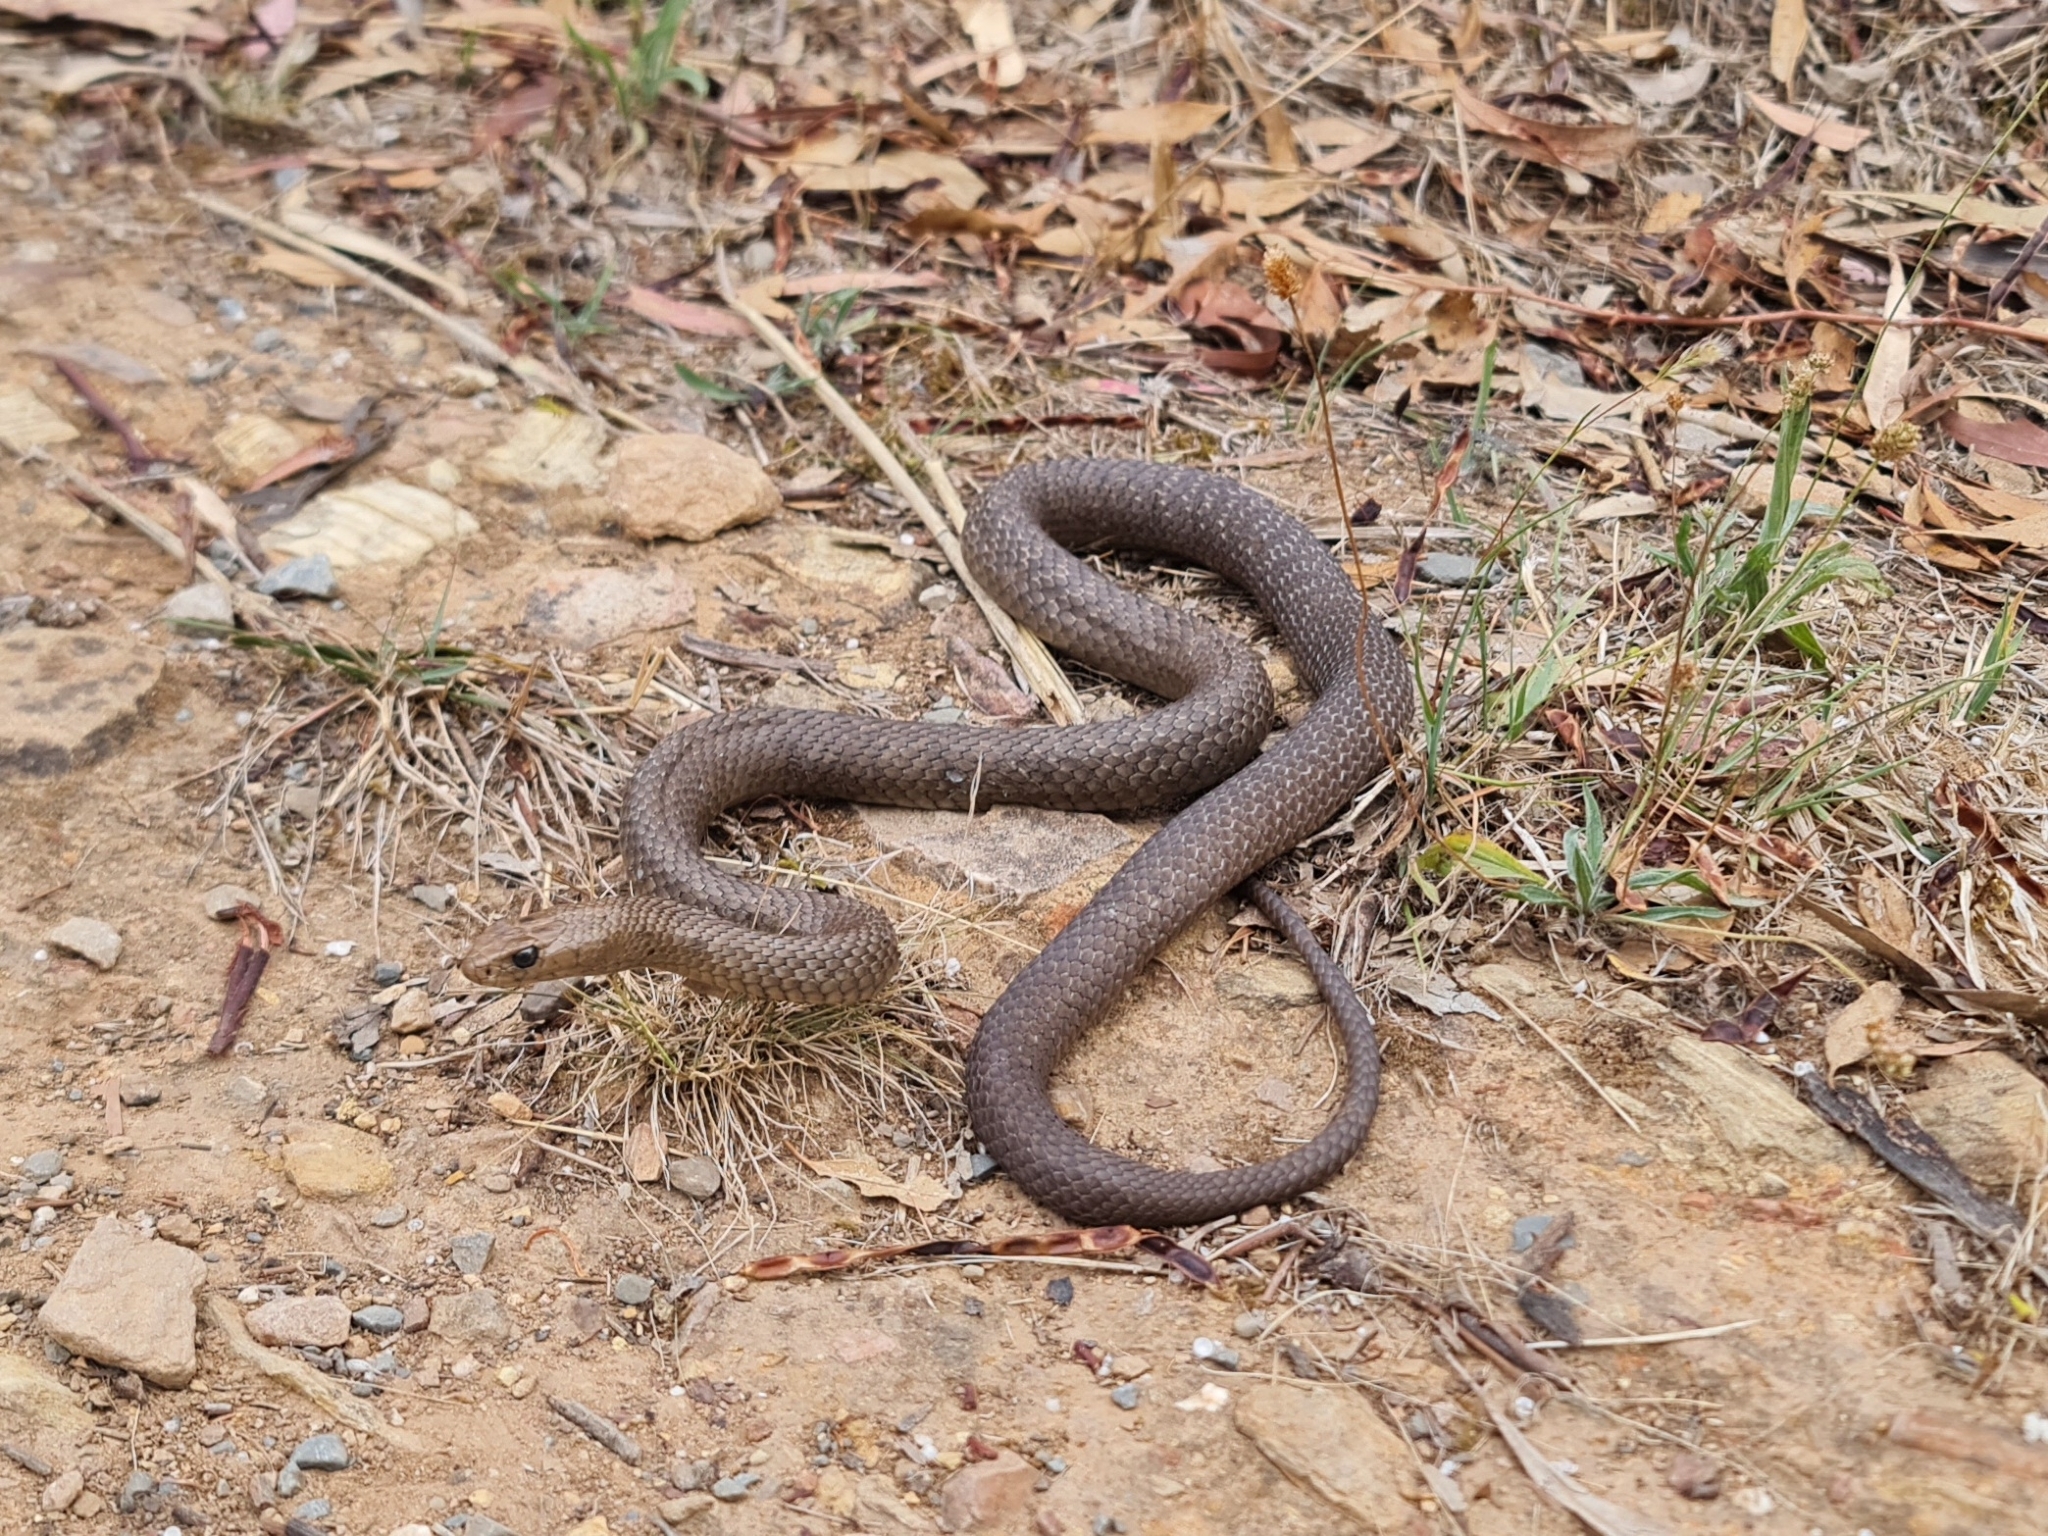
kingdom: Animalia
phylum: Chordata
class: Squamata
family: Elapidae
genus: Pseudonaja
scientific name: Pseudonaja textilis
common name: Eastern brown snake
